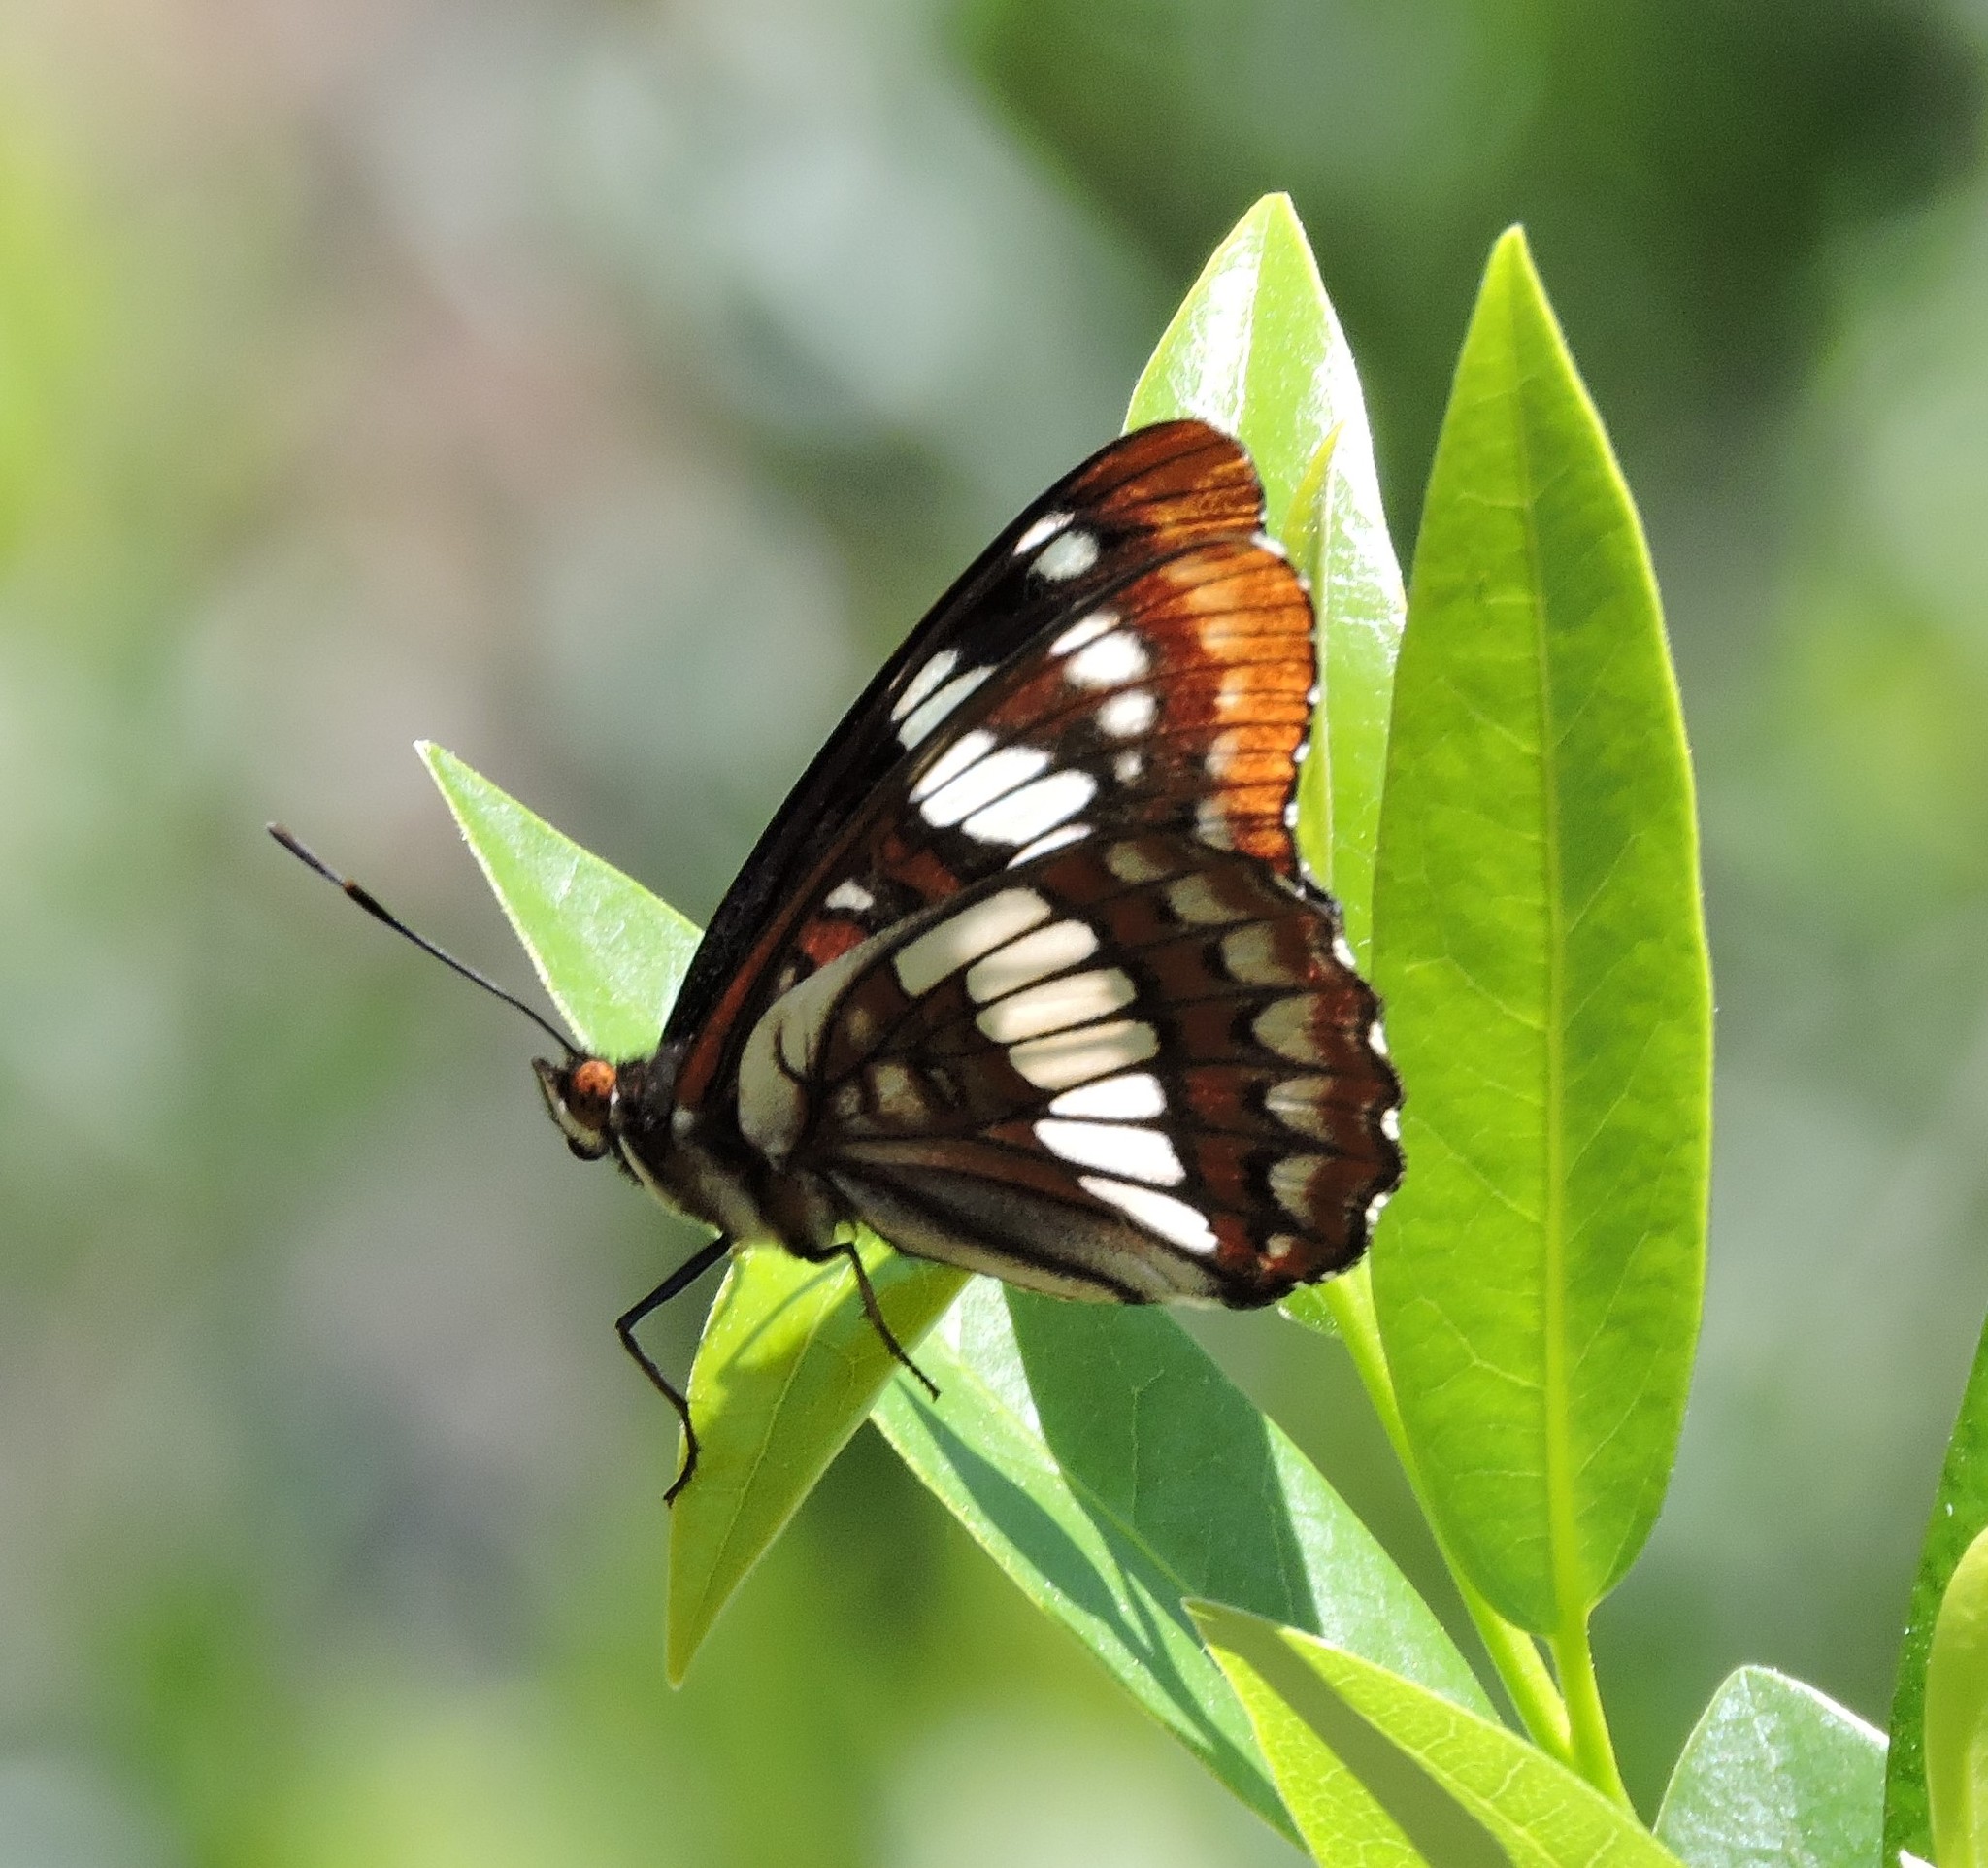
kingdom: Animalia
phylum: Arthropoda
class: Insecta
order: Lepidoptera
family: Nymphalidae
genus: Limenitis
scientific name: Limenitis lorquini
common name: Lorquin's admiral
